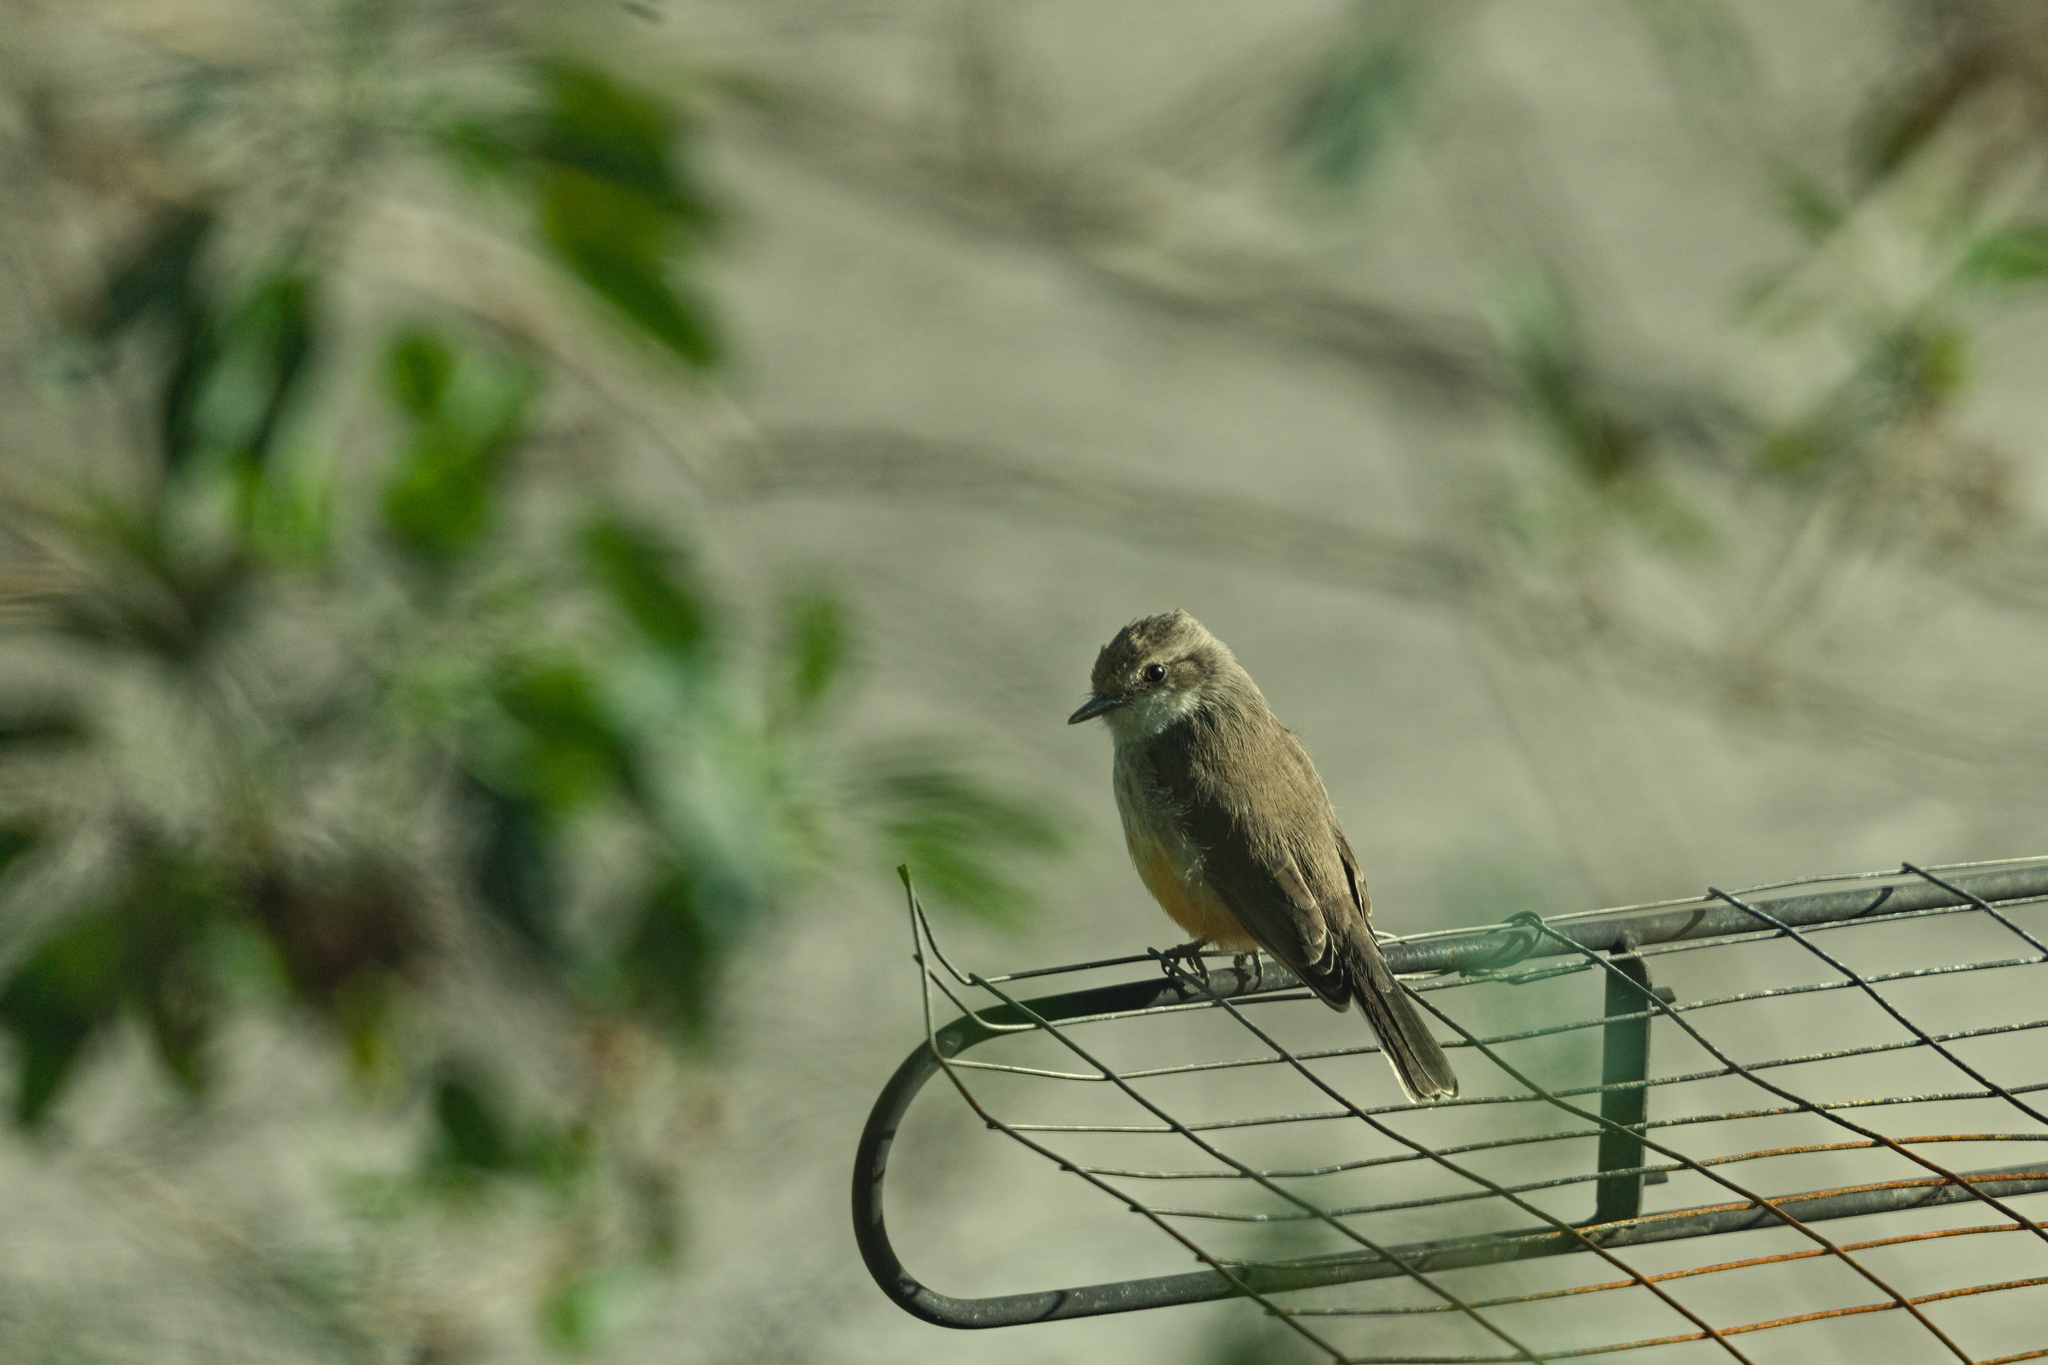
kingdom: Animalia
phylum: Chordata
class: Aves
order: Passeriformes
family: Tyrannidae
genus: Pyrocephalus
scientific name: Pyrocephalus rubinus
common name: Vermilion flycatcher
